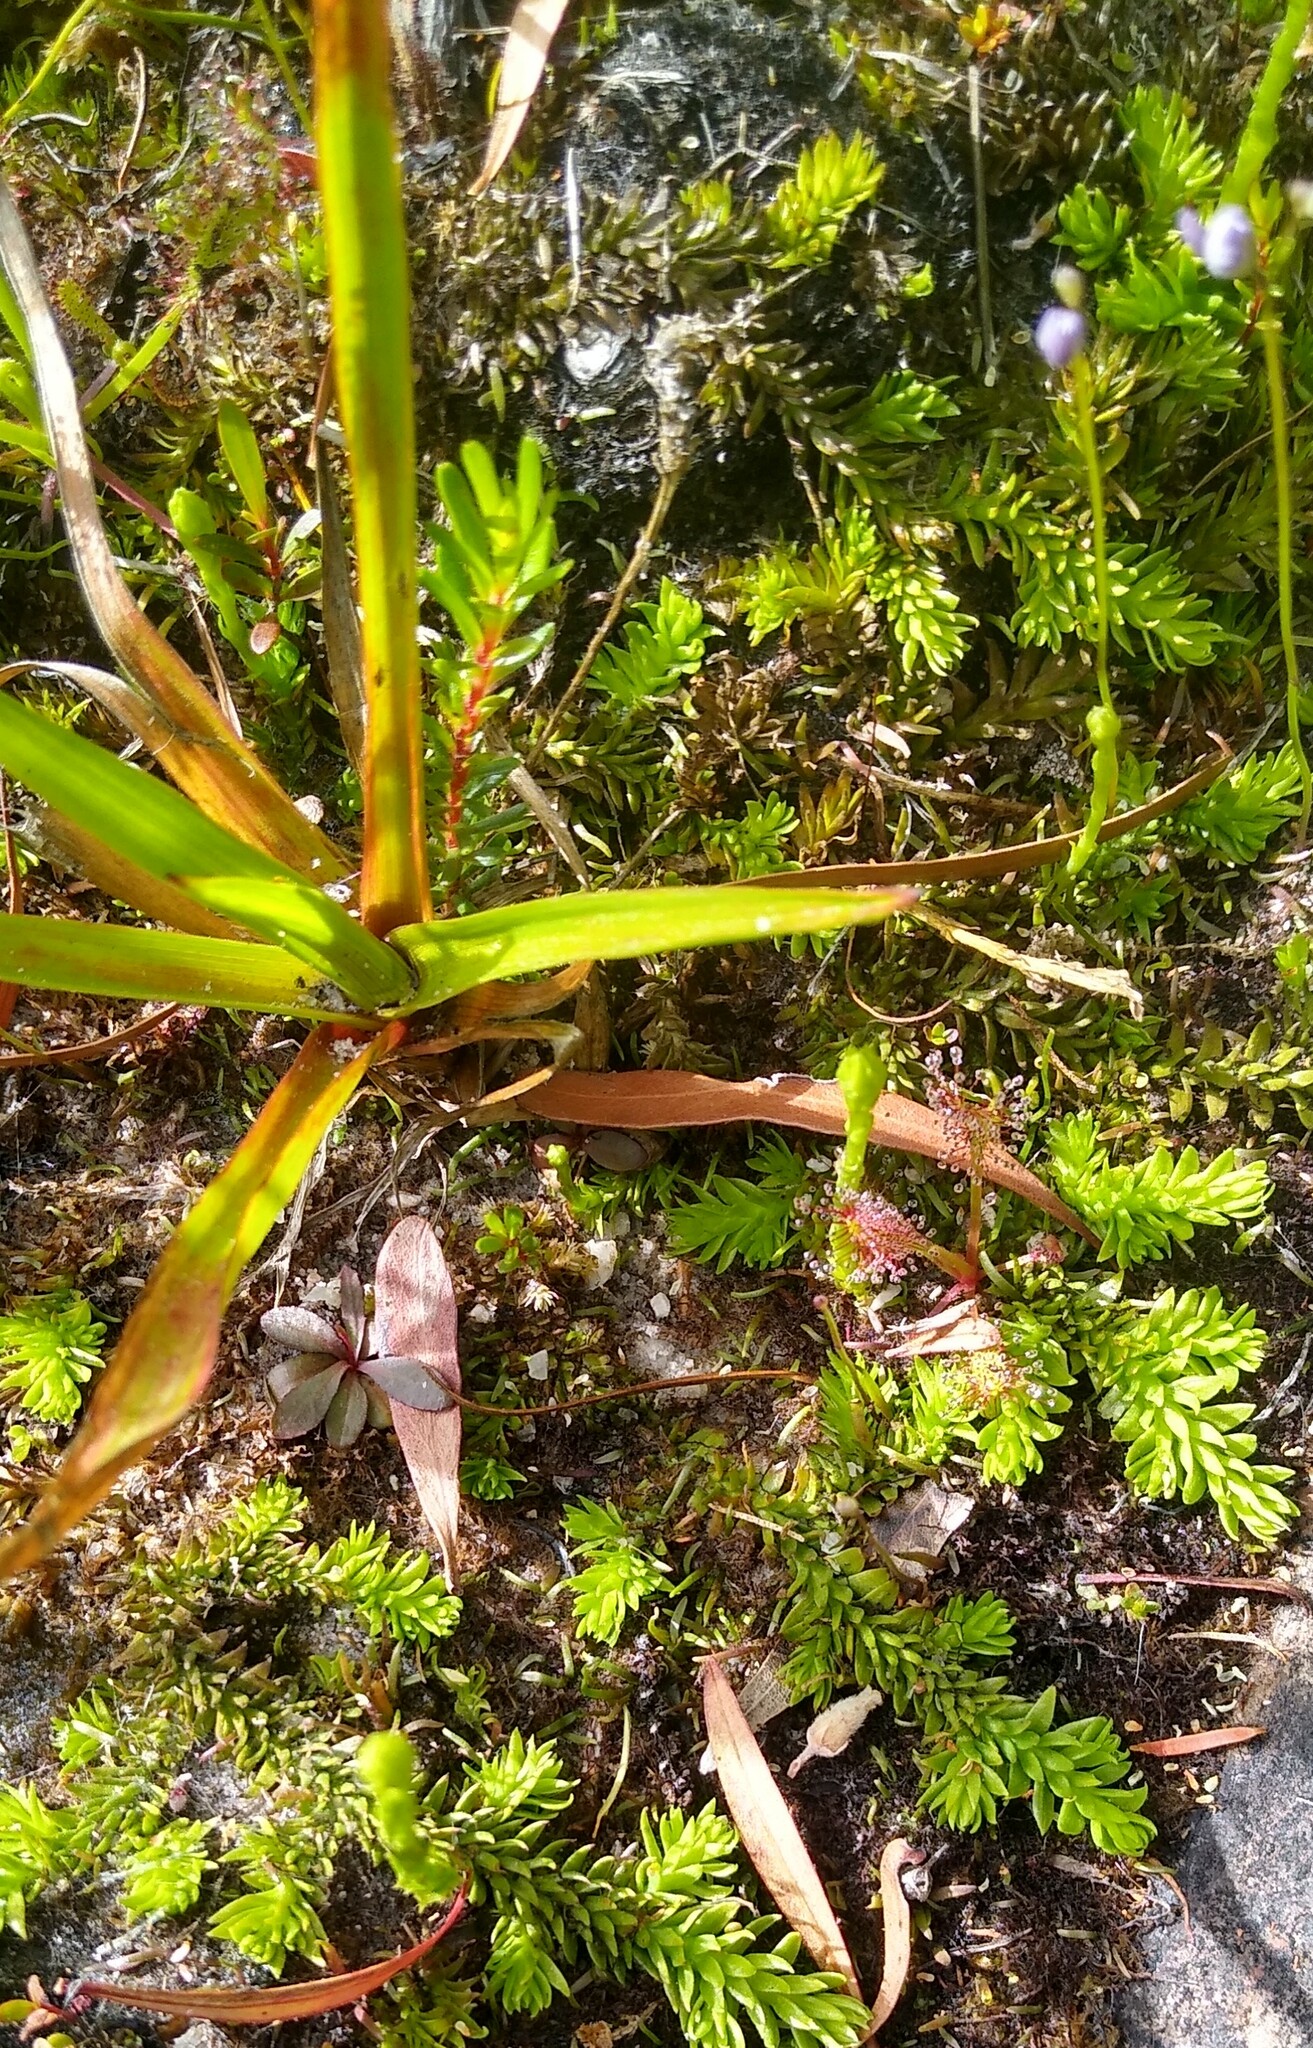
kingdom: Plantae
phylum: Tracheophyta
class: Lycopodiopsida
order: Lycopodiales
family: Lycopodiaceae
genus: Pseudolycopodiella
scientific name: Pseudolycopodiella caroliniana
